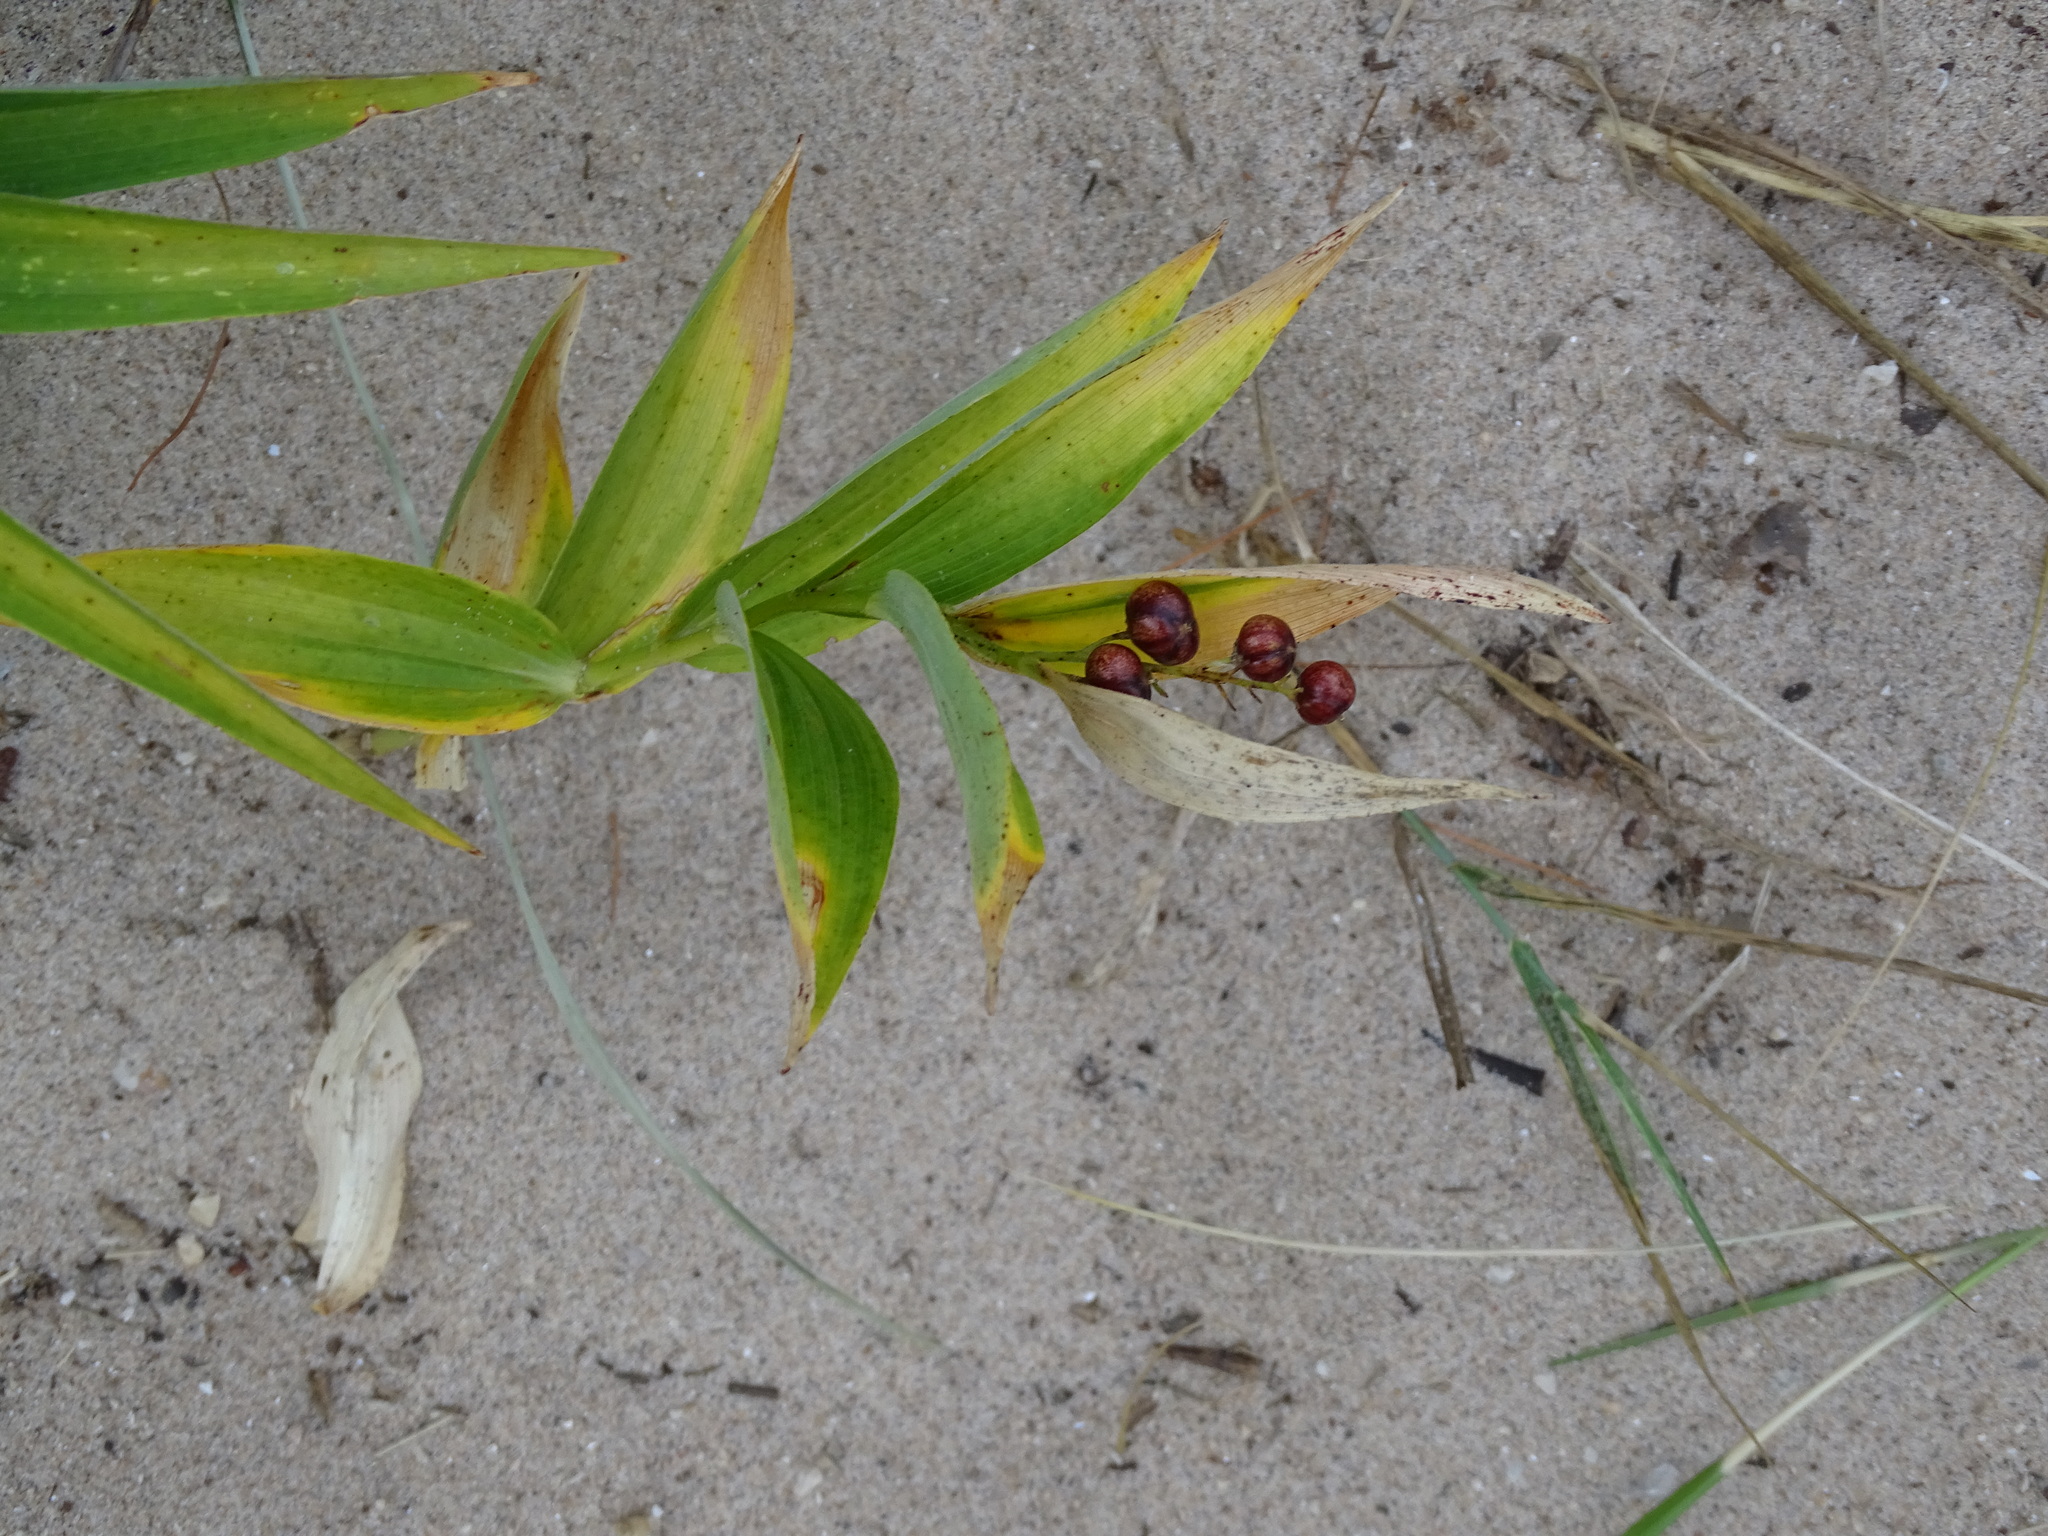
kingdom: Plantae
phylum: Tracheophyta
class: Liliopsida
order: Asparagales
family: Asparagaceae
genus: Maianthemum
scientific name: Maianthemum stellatum
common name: Little false solomon's seal
